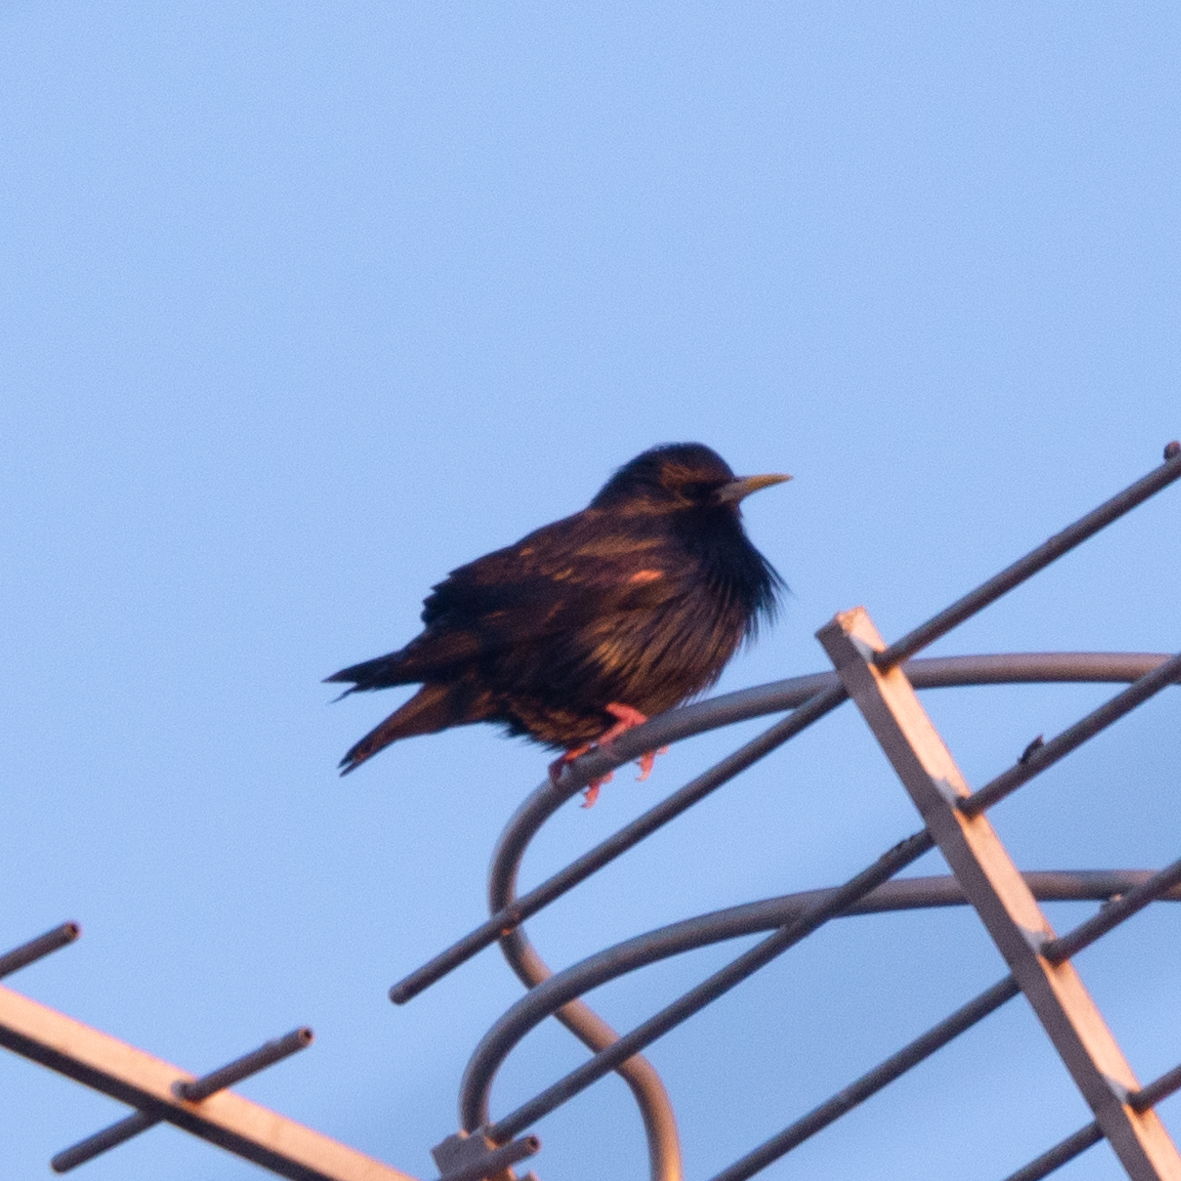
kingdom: Animalia
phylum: Chordata
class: Aves
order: Passeriformes
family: Sturnidae
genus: Sturnus
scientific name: Sturnus unicolor
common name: Spotless starling
